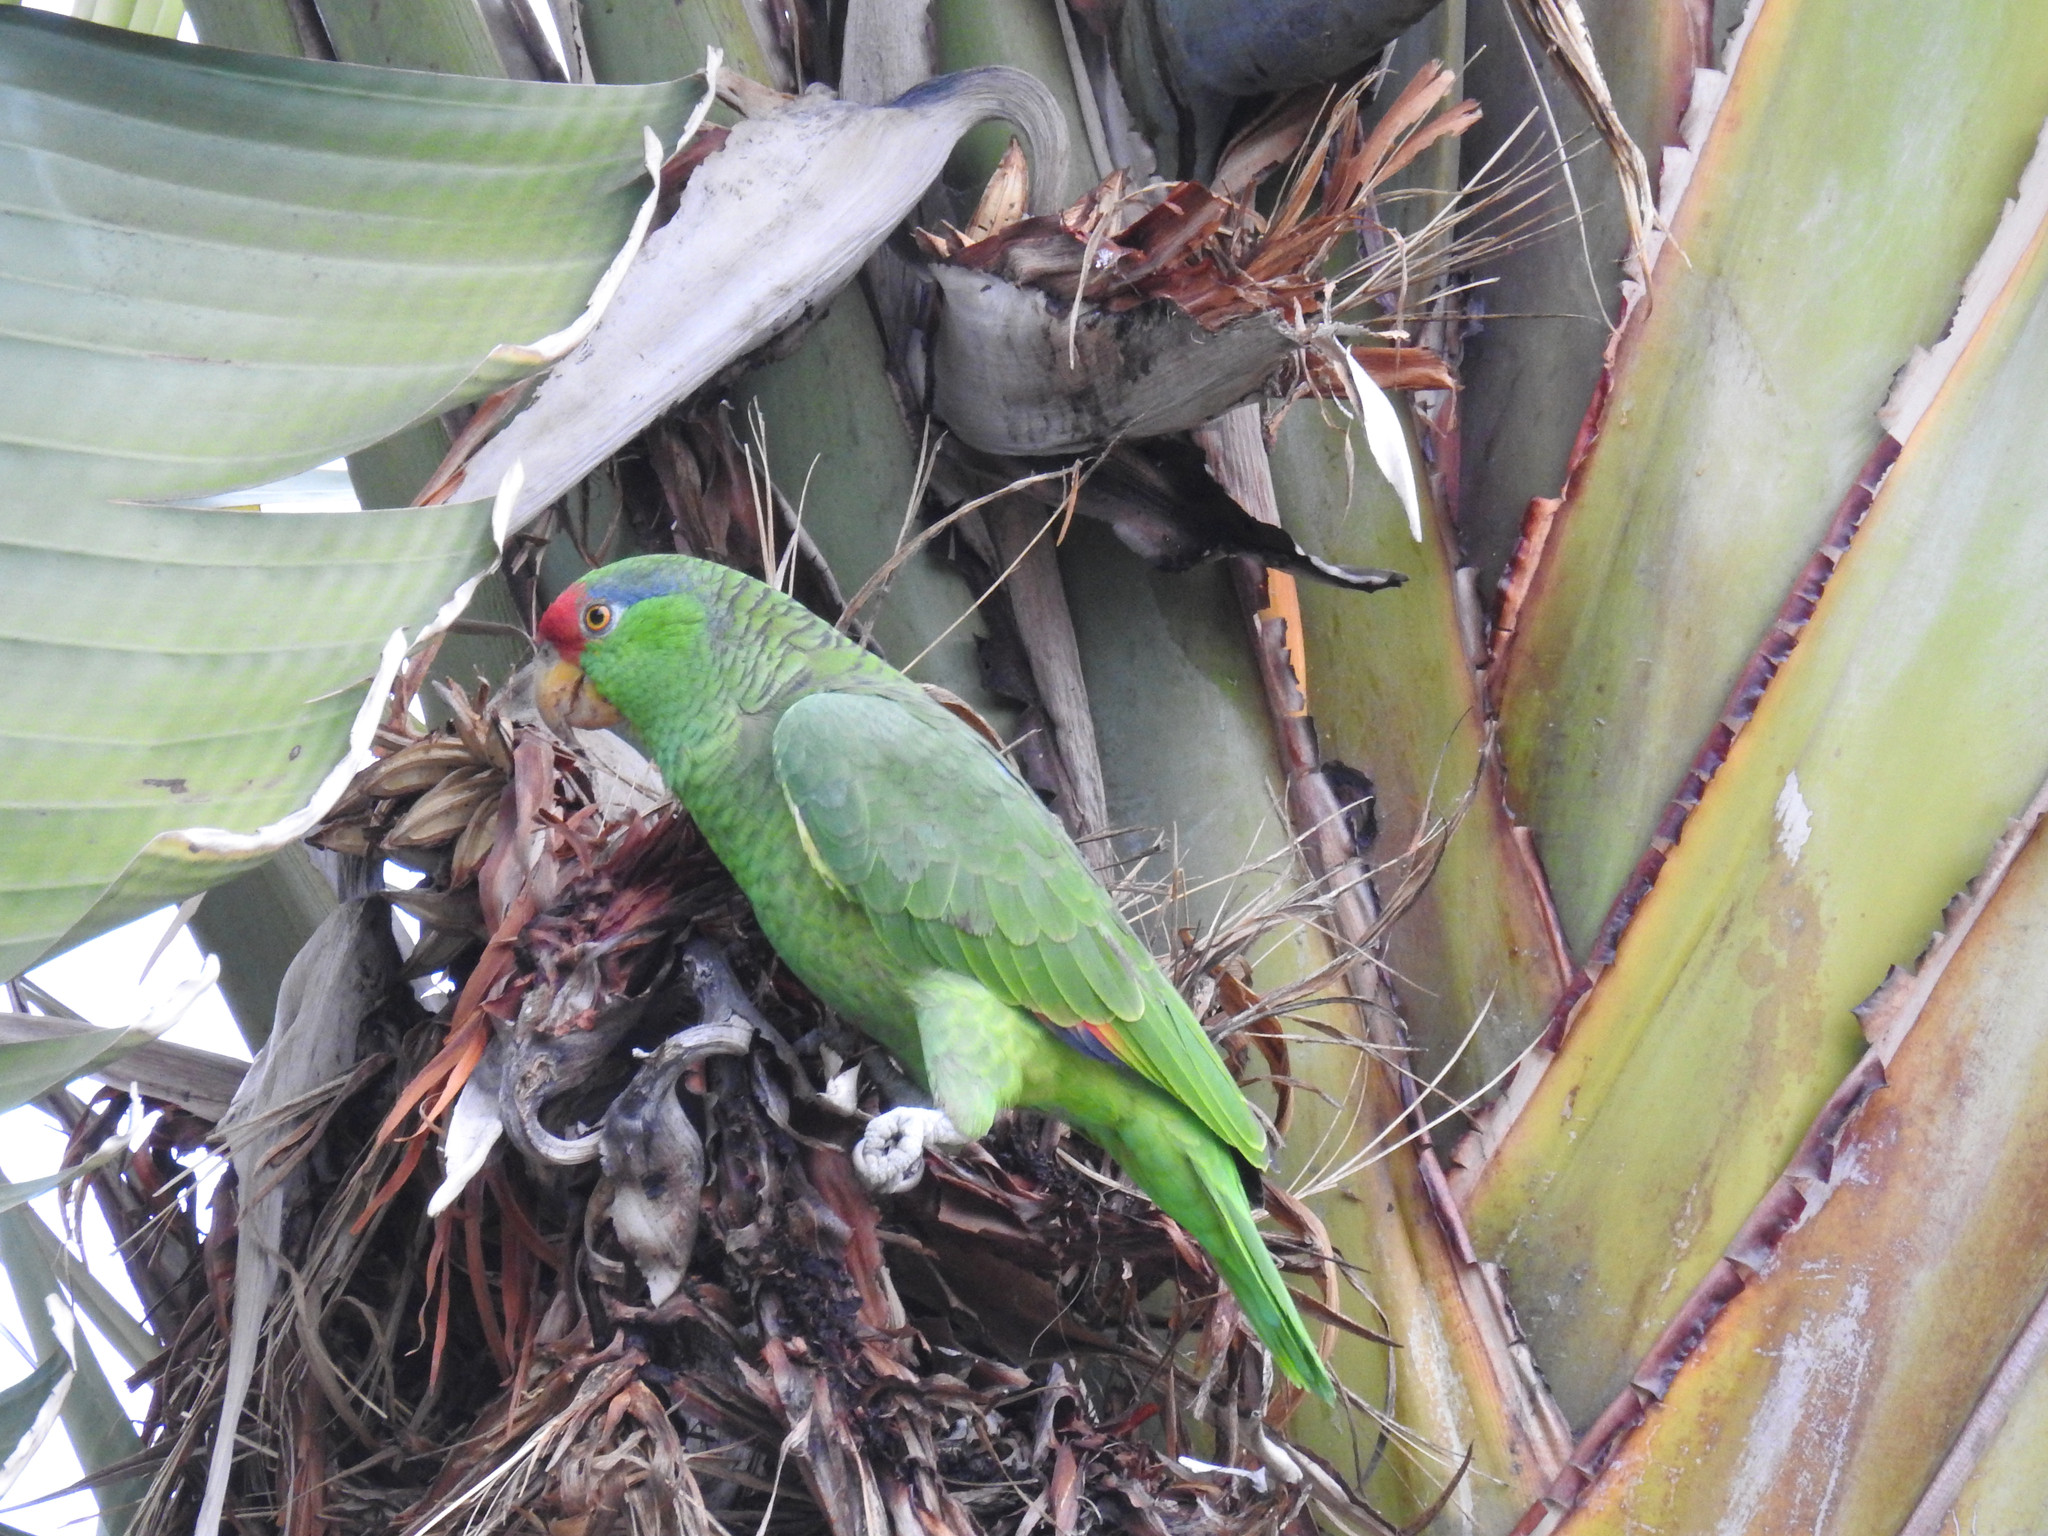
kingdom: Animalia
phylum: Chordata
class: Aves
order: Psittaciformes
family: Psittacidae
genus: Amazona
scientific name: Amazona viridigenalis
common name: Red-crowned amazon
